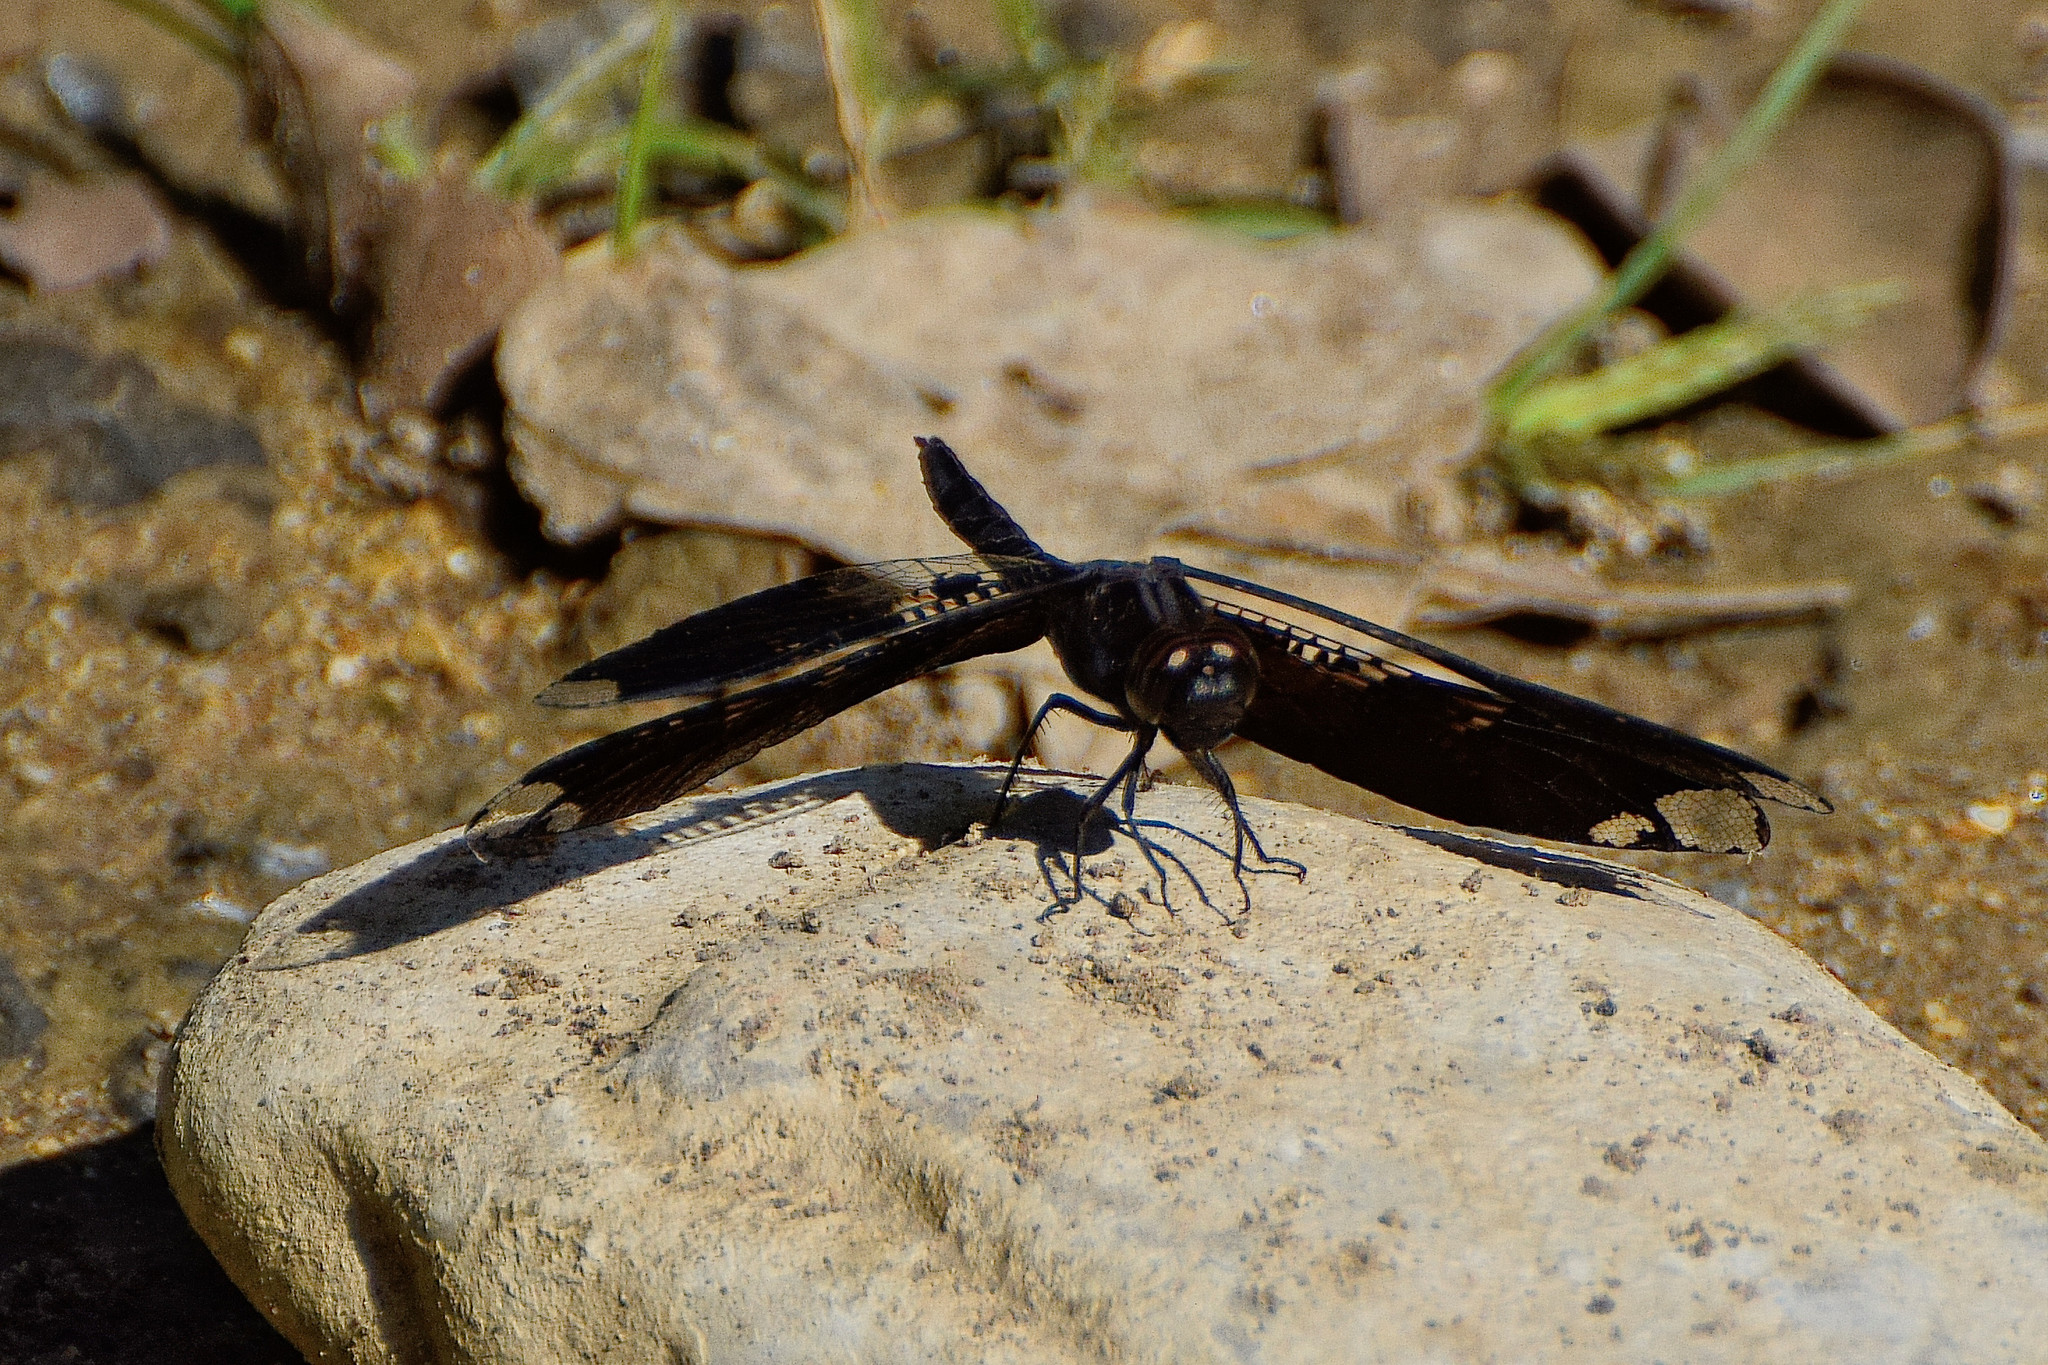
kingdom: Animalia
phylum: Arthropoda
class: Insecta
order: Odonata
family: Libellulidae
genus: Pseudoleon
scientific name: Pseudoleon superbus
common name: Filigree skimmer
